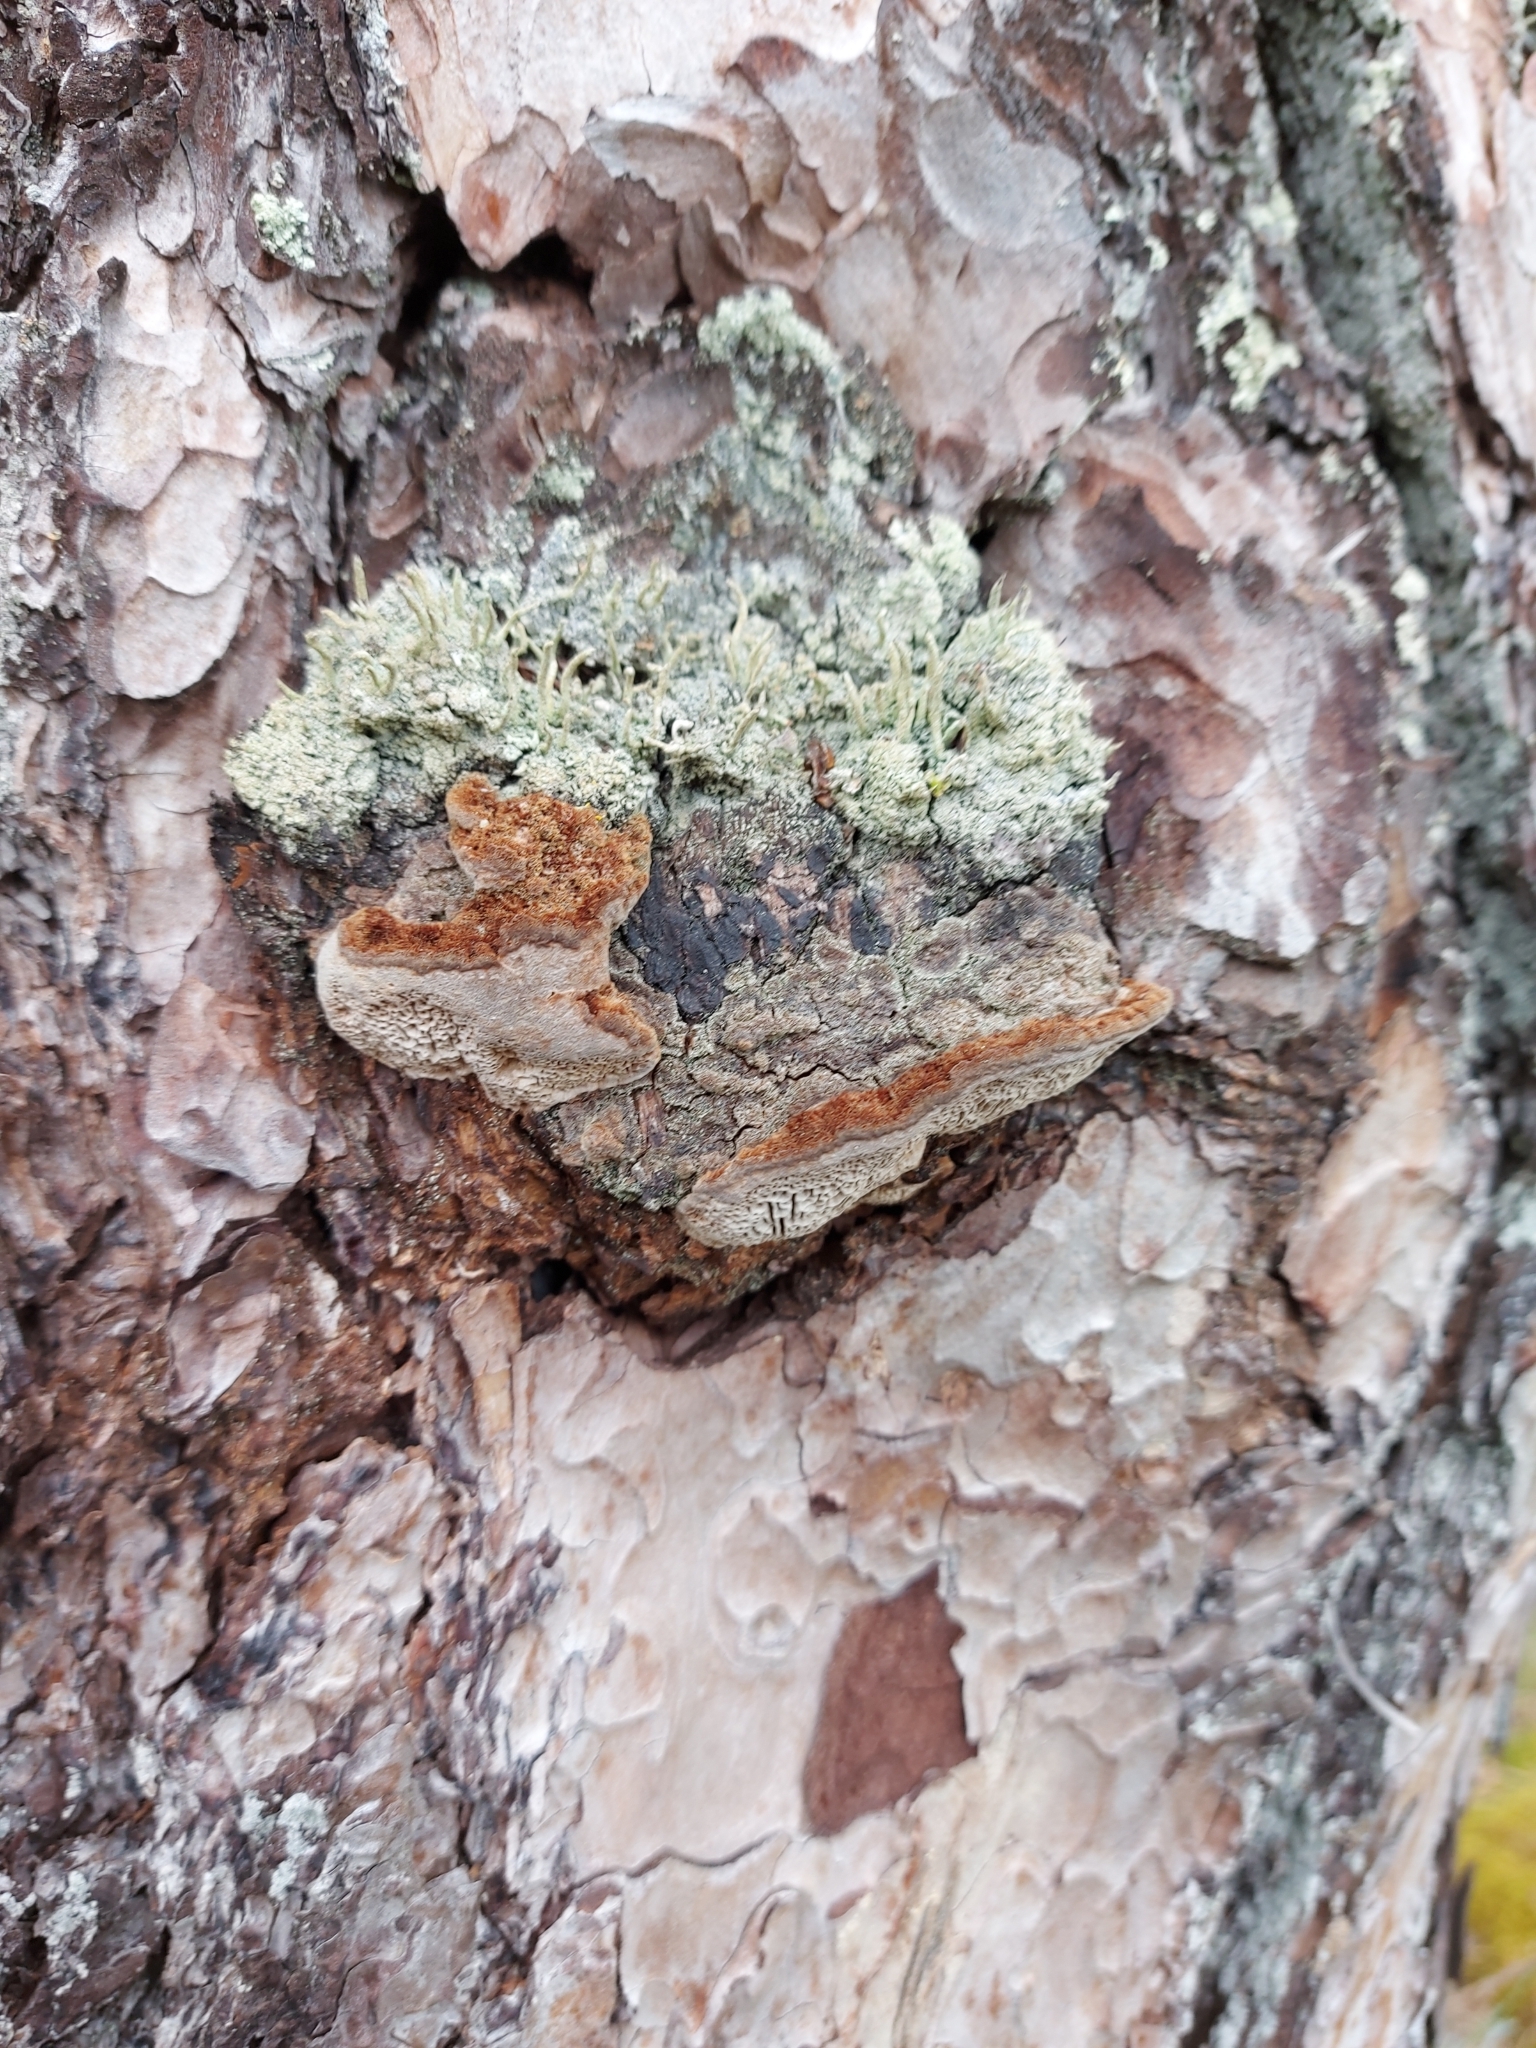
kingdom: Fungi
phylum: Basidiomycota
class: Agaricomycetes
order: Hymenochaetales
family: Hymenochaetaceae
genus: Porodaedalea
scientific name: Porodaedalea pini
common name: Pine bracket
